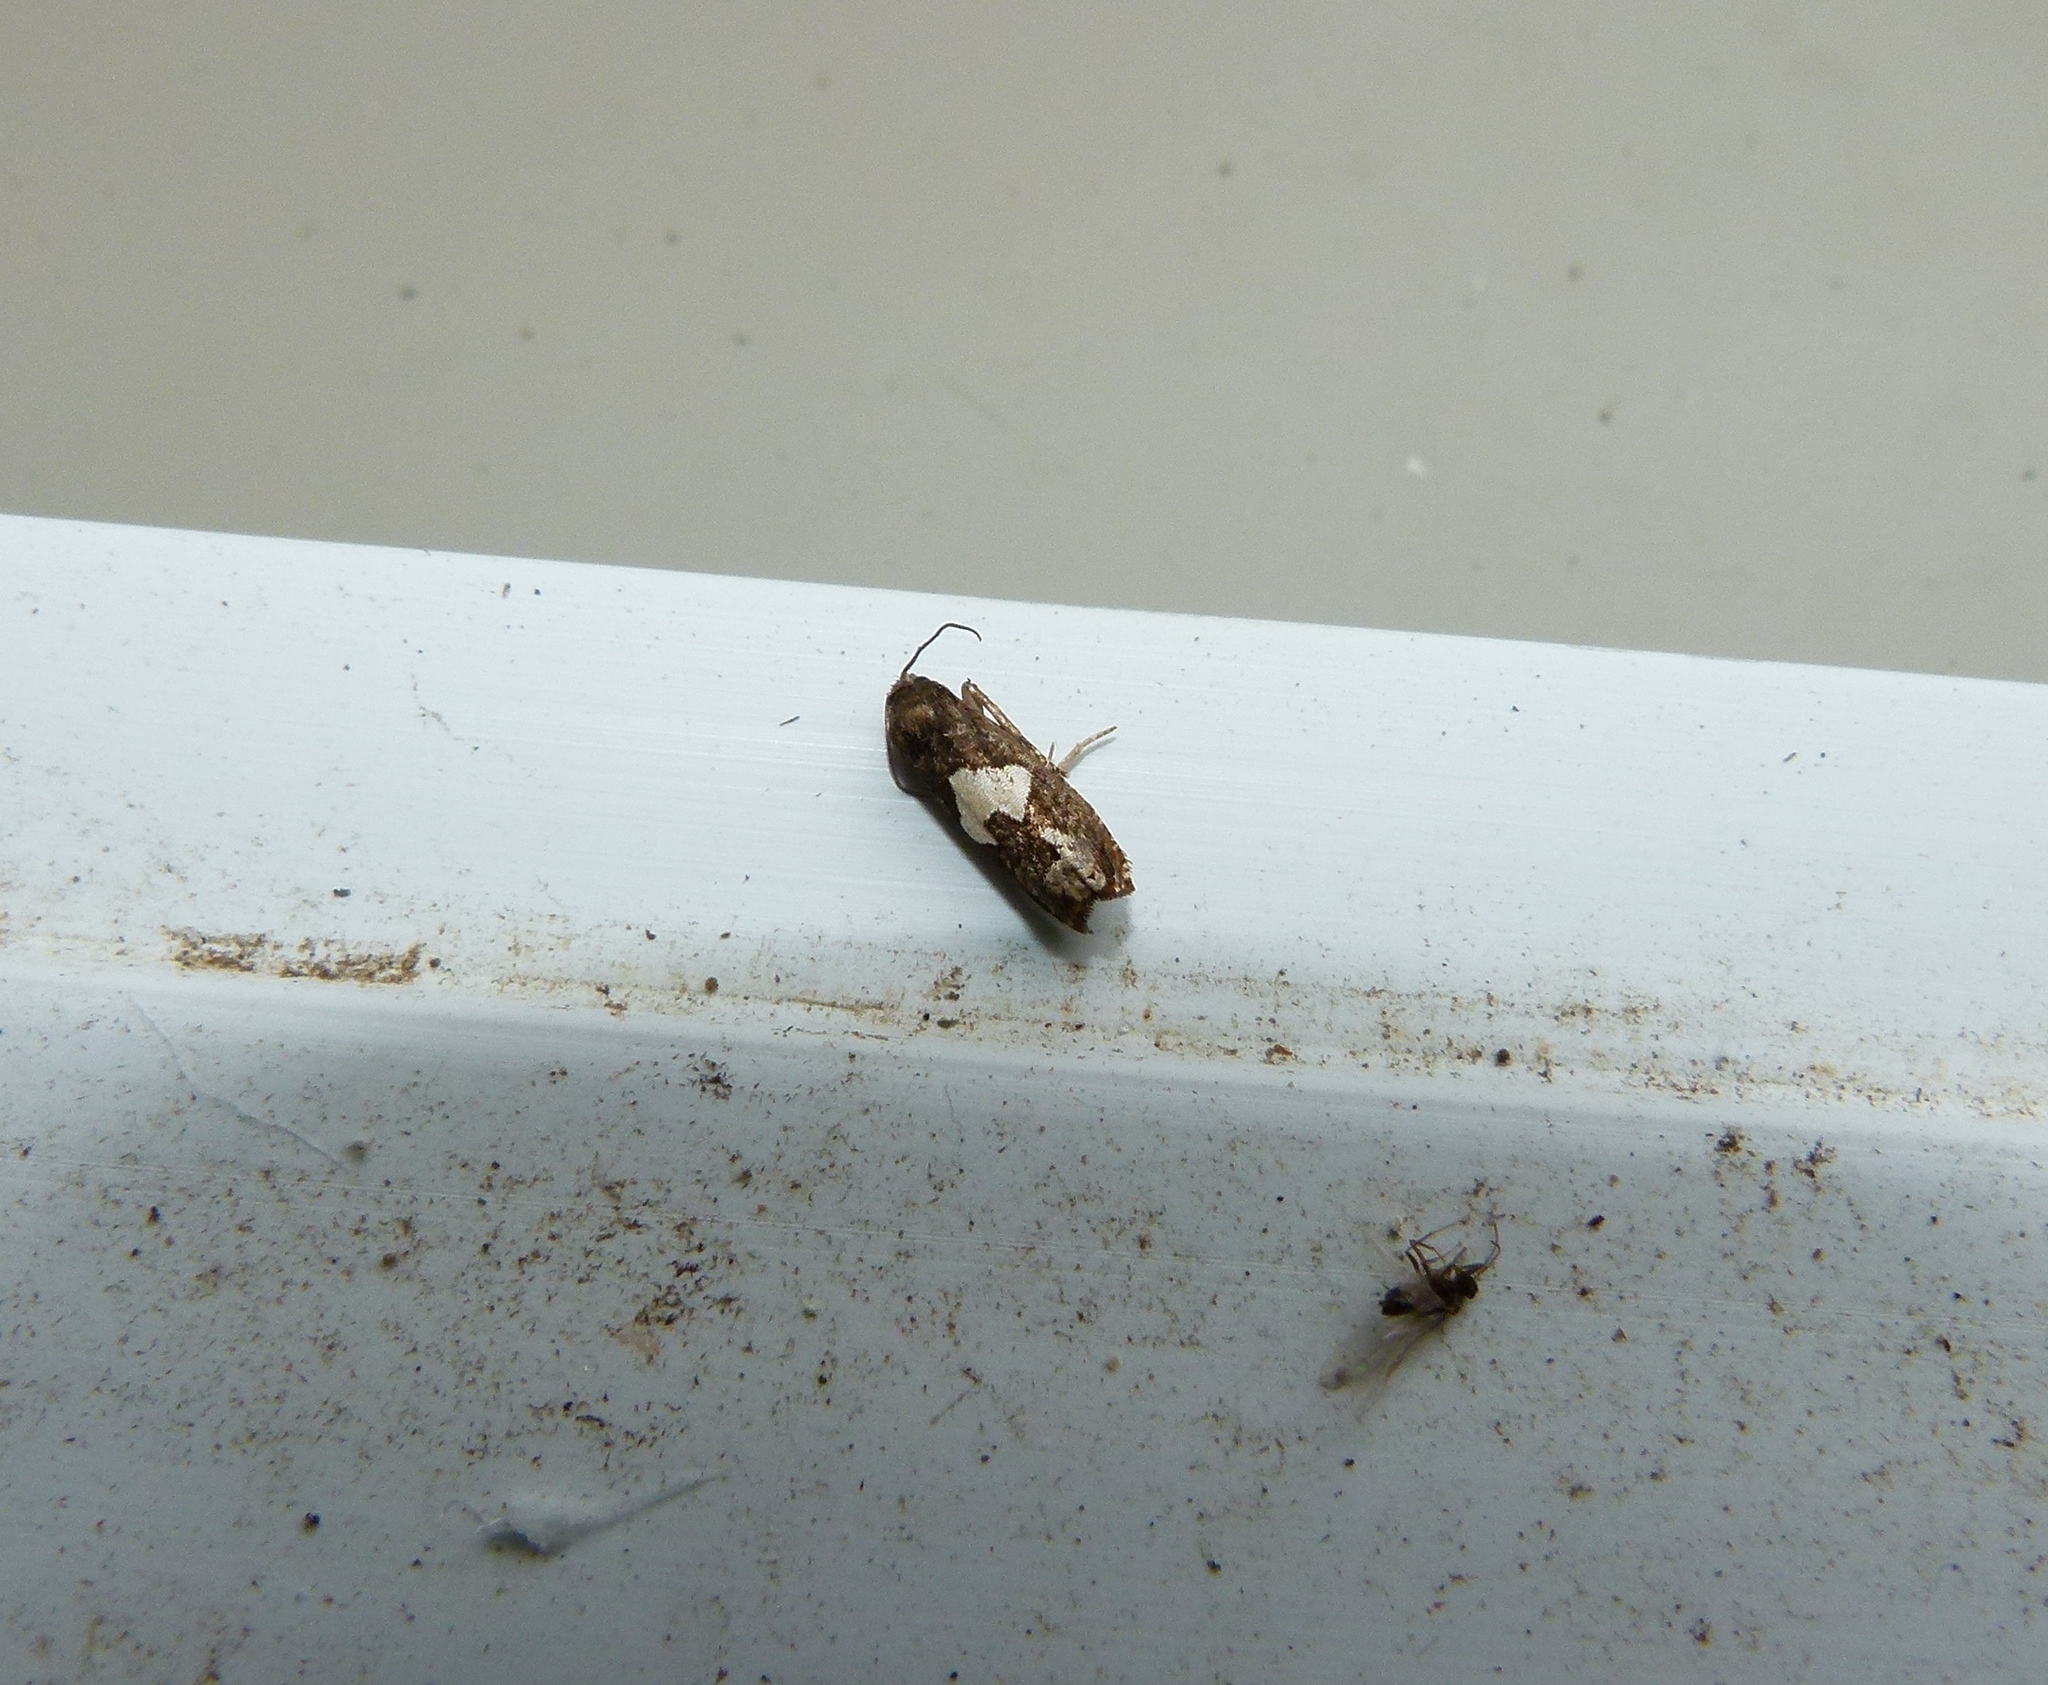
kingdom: Animalia
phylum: Arthropoda
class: Insecta
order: Lepidoptera
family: Tortricidae
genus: Epiblema
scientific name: Epiblema otiosana
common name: Bidens borer moth
